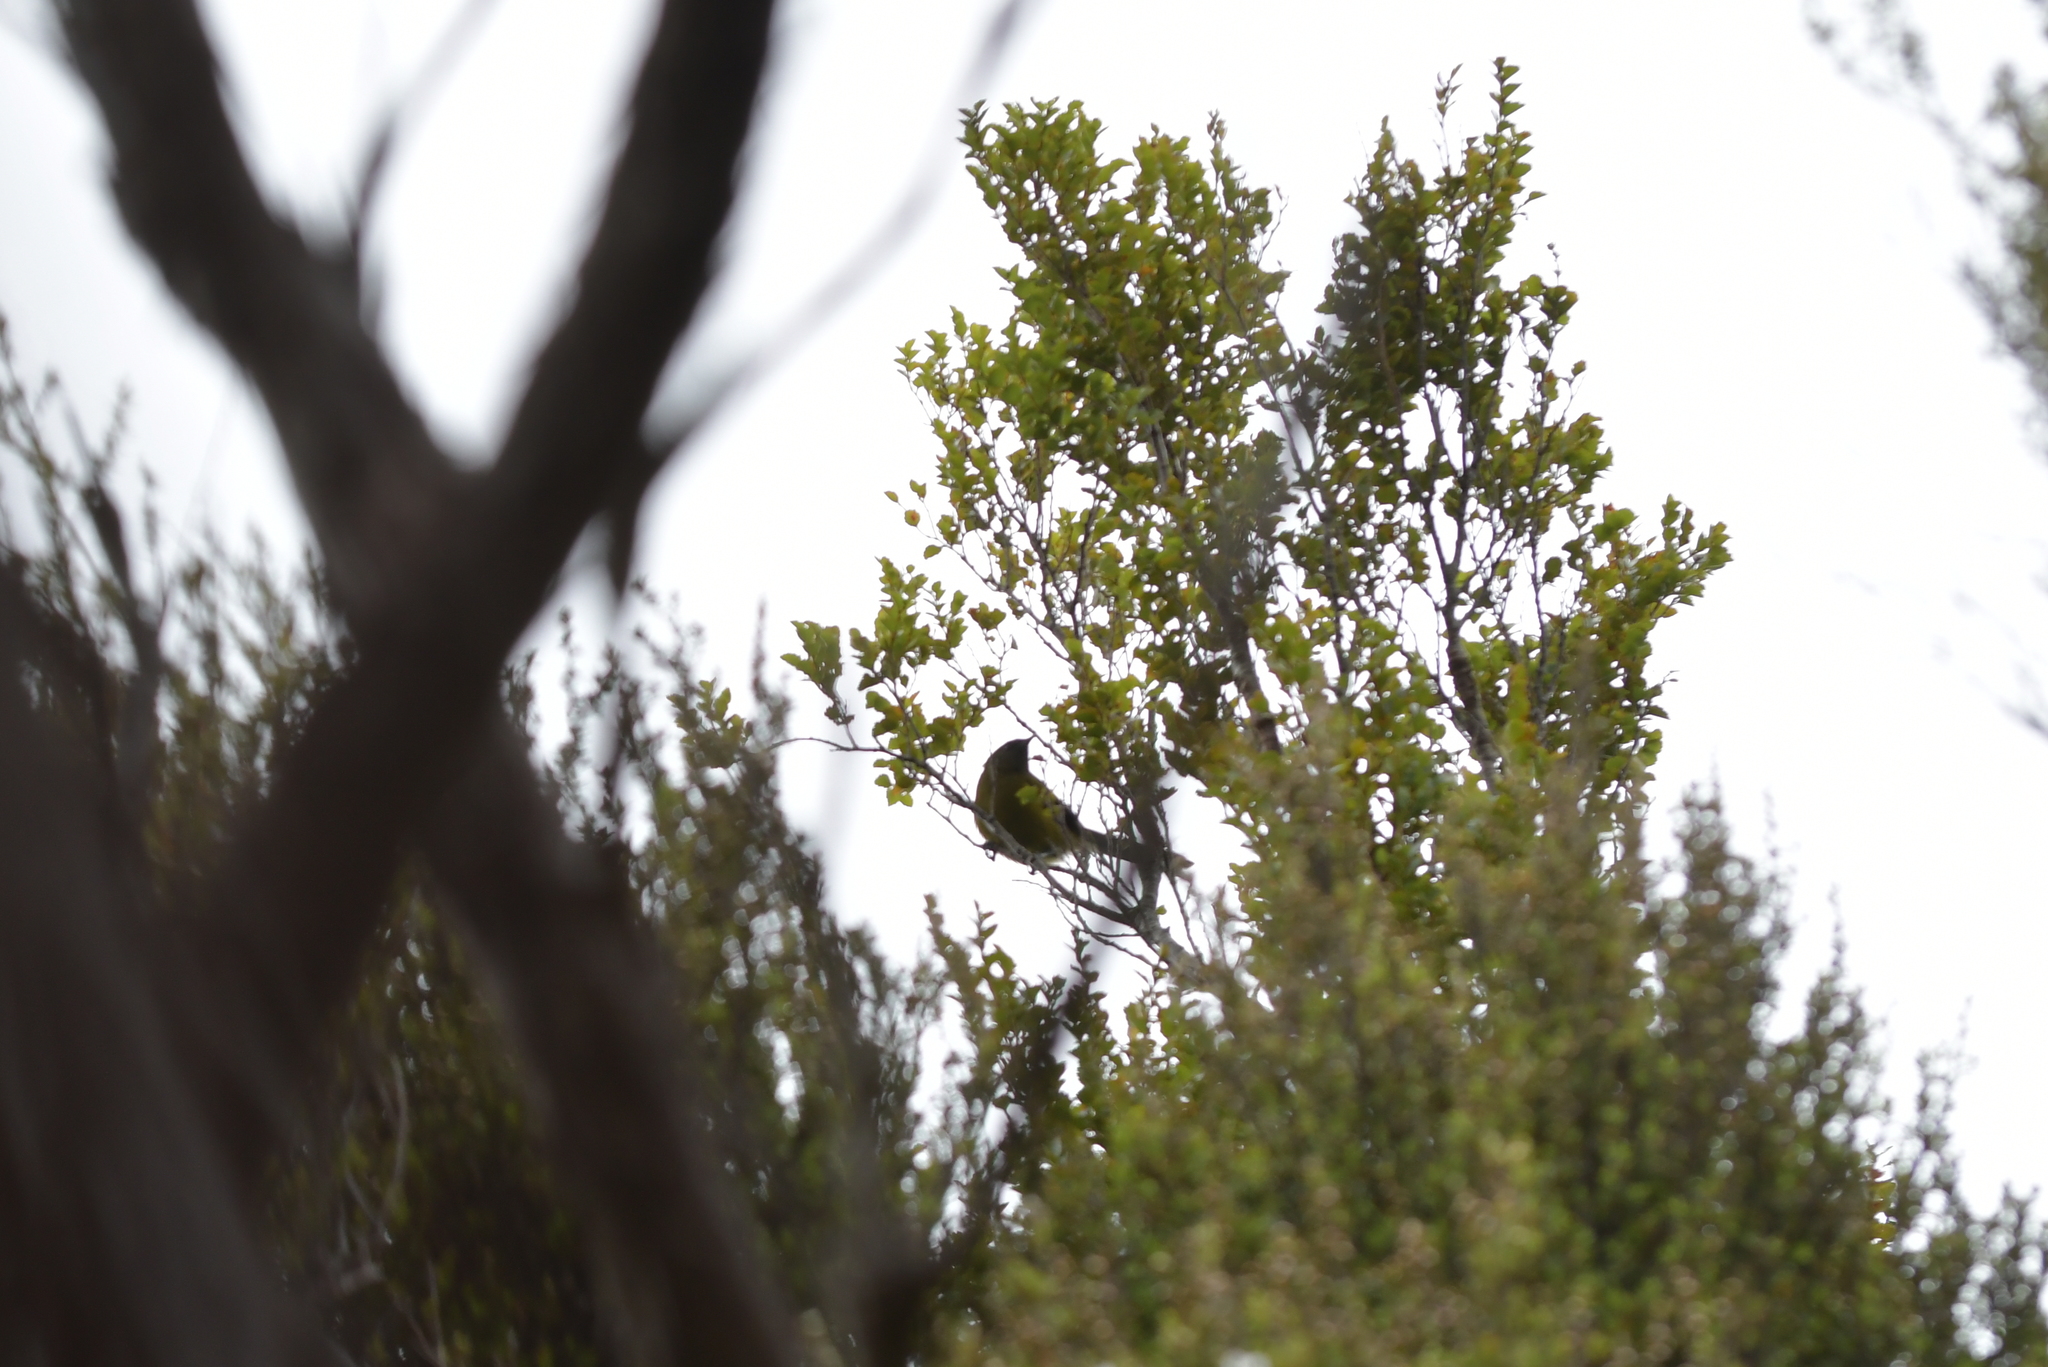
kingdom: Animalia
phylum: Chordata
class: Aves
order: Passeriformes
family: Meliphagidae
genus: Anthornis
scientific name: Anthornis melanura
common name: New zealand bellbird
